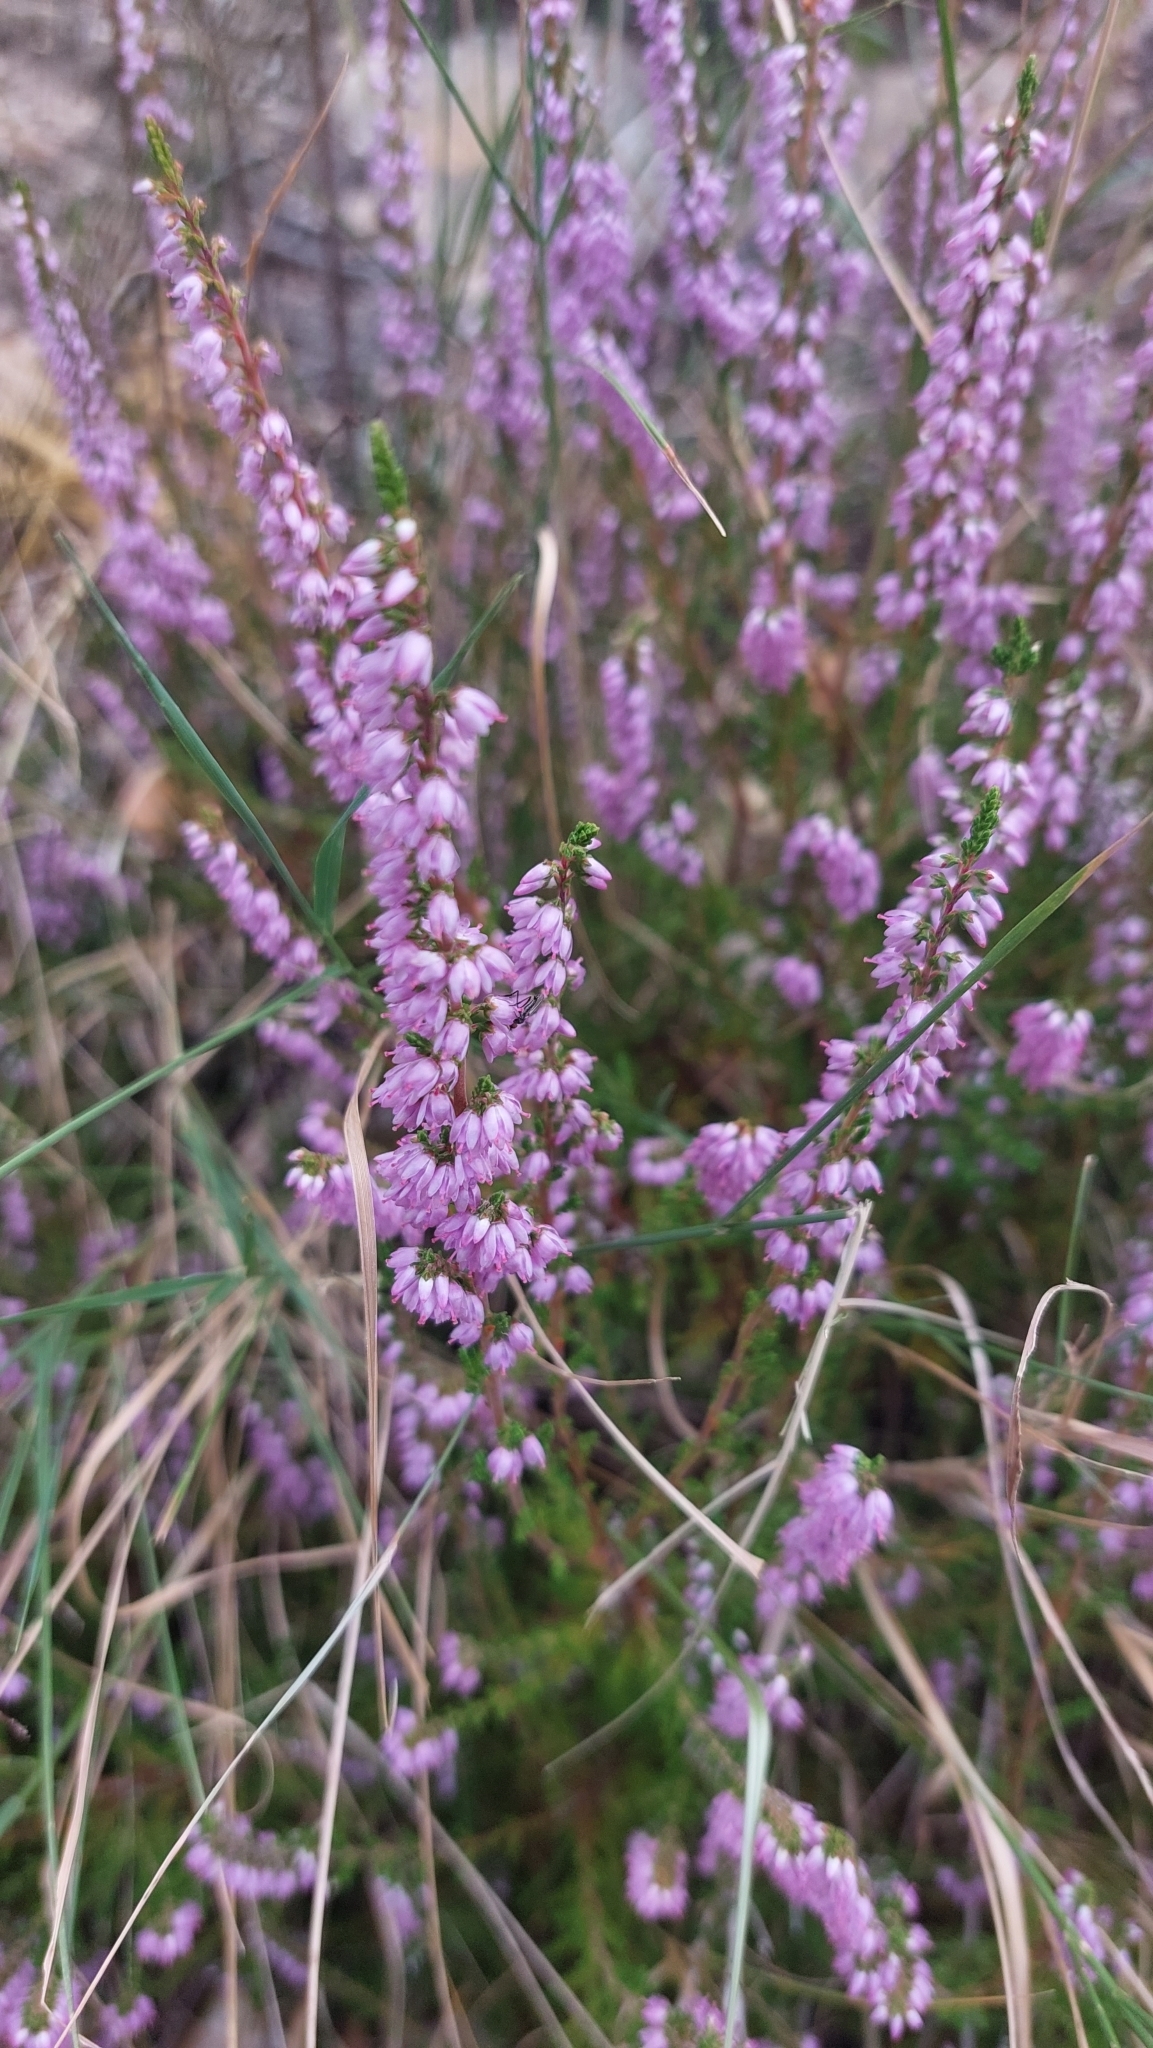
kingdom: Plantae
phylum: Tracheophyta
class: Magnoliopsida
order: Ericales
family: Ericaceae
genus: Calluna
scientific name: Calluna vulgaris
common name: Heather
